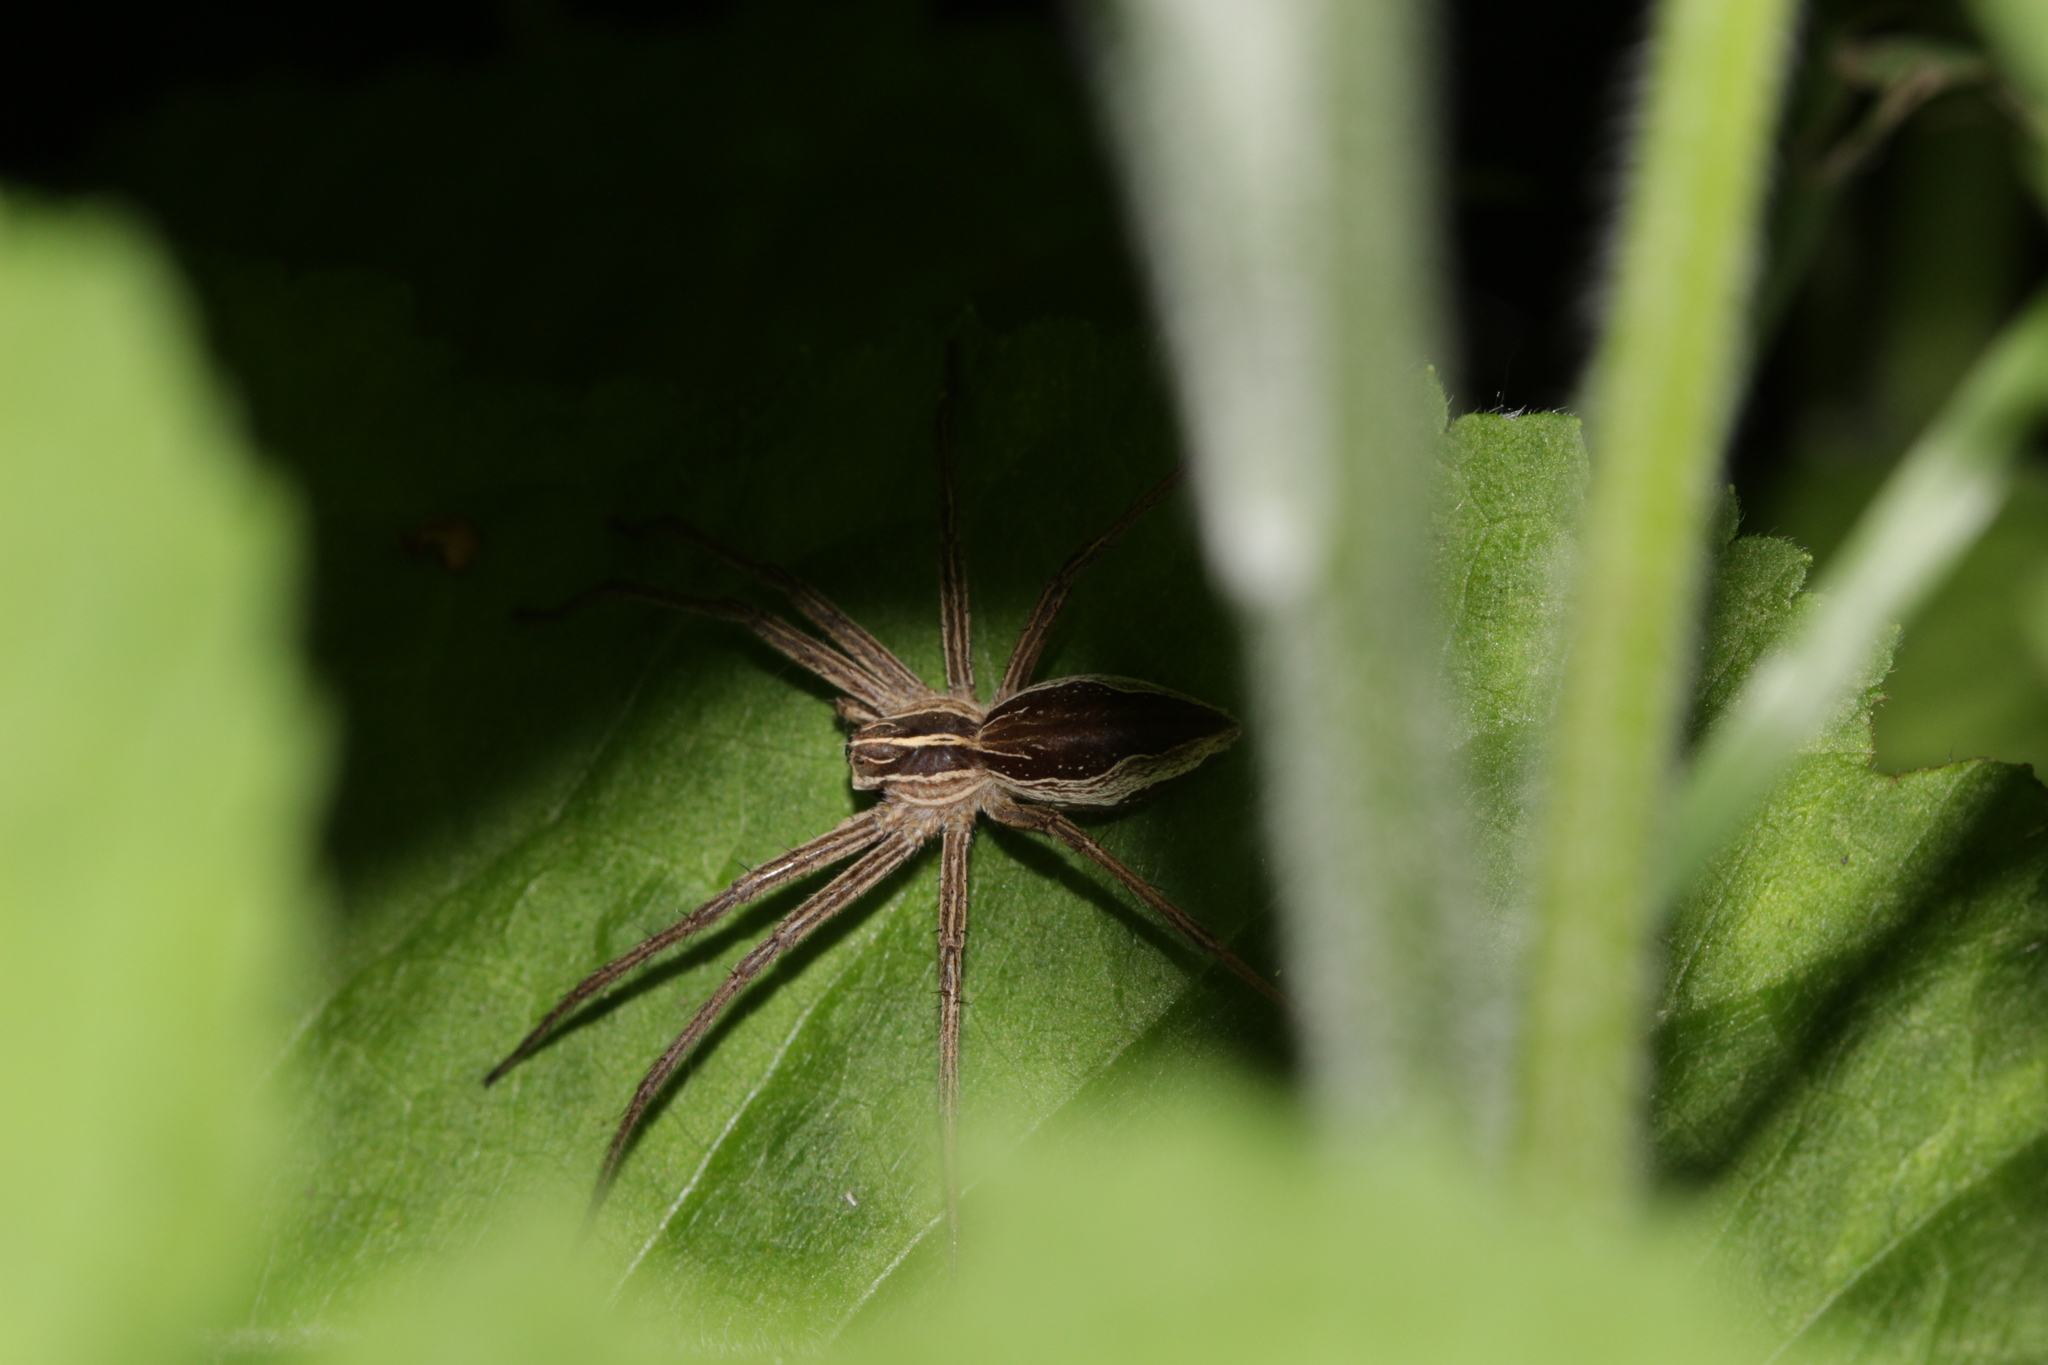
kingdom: Animalia
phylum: Arthropoda
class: Arachnida
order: Araneae
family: Pisauridae
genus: Pisaura
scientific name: Pisaura mirabilis
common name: Tent spider
